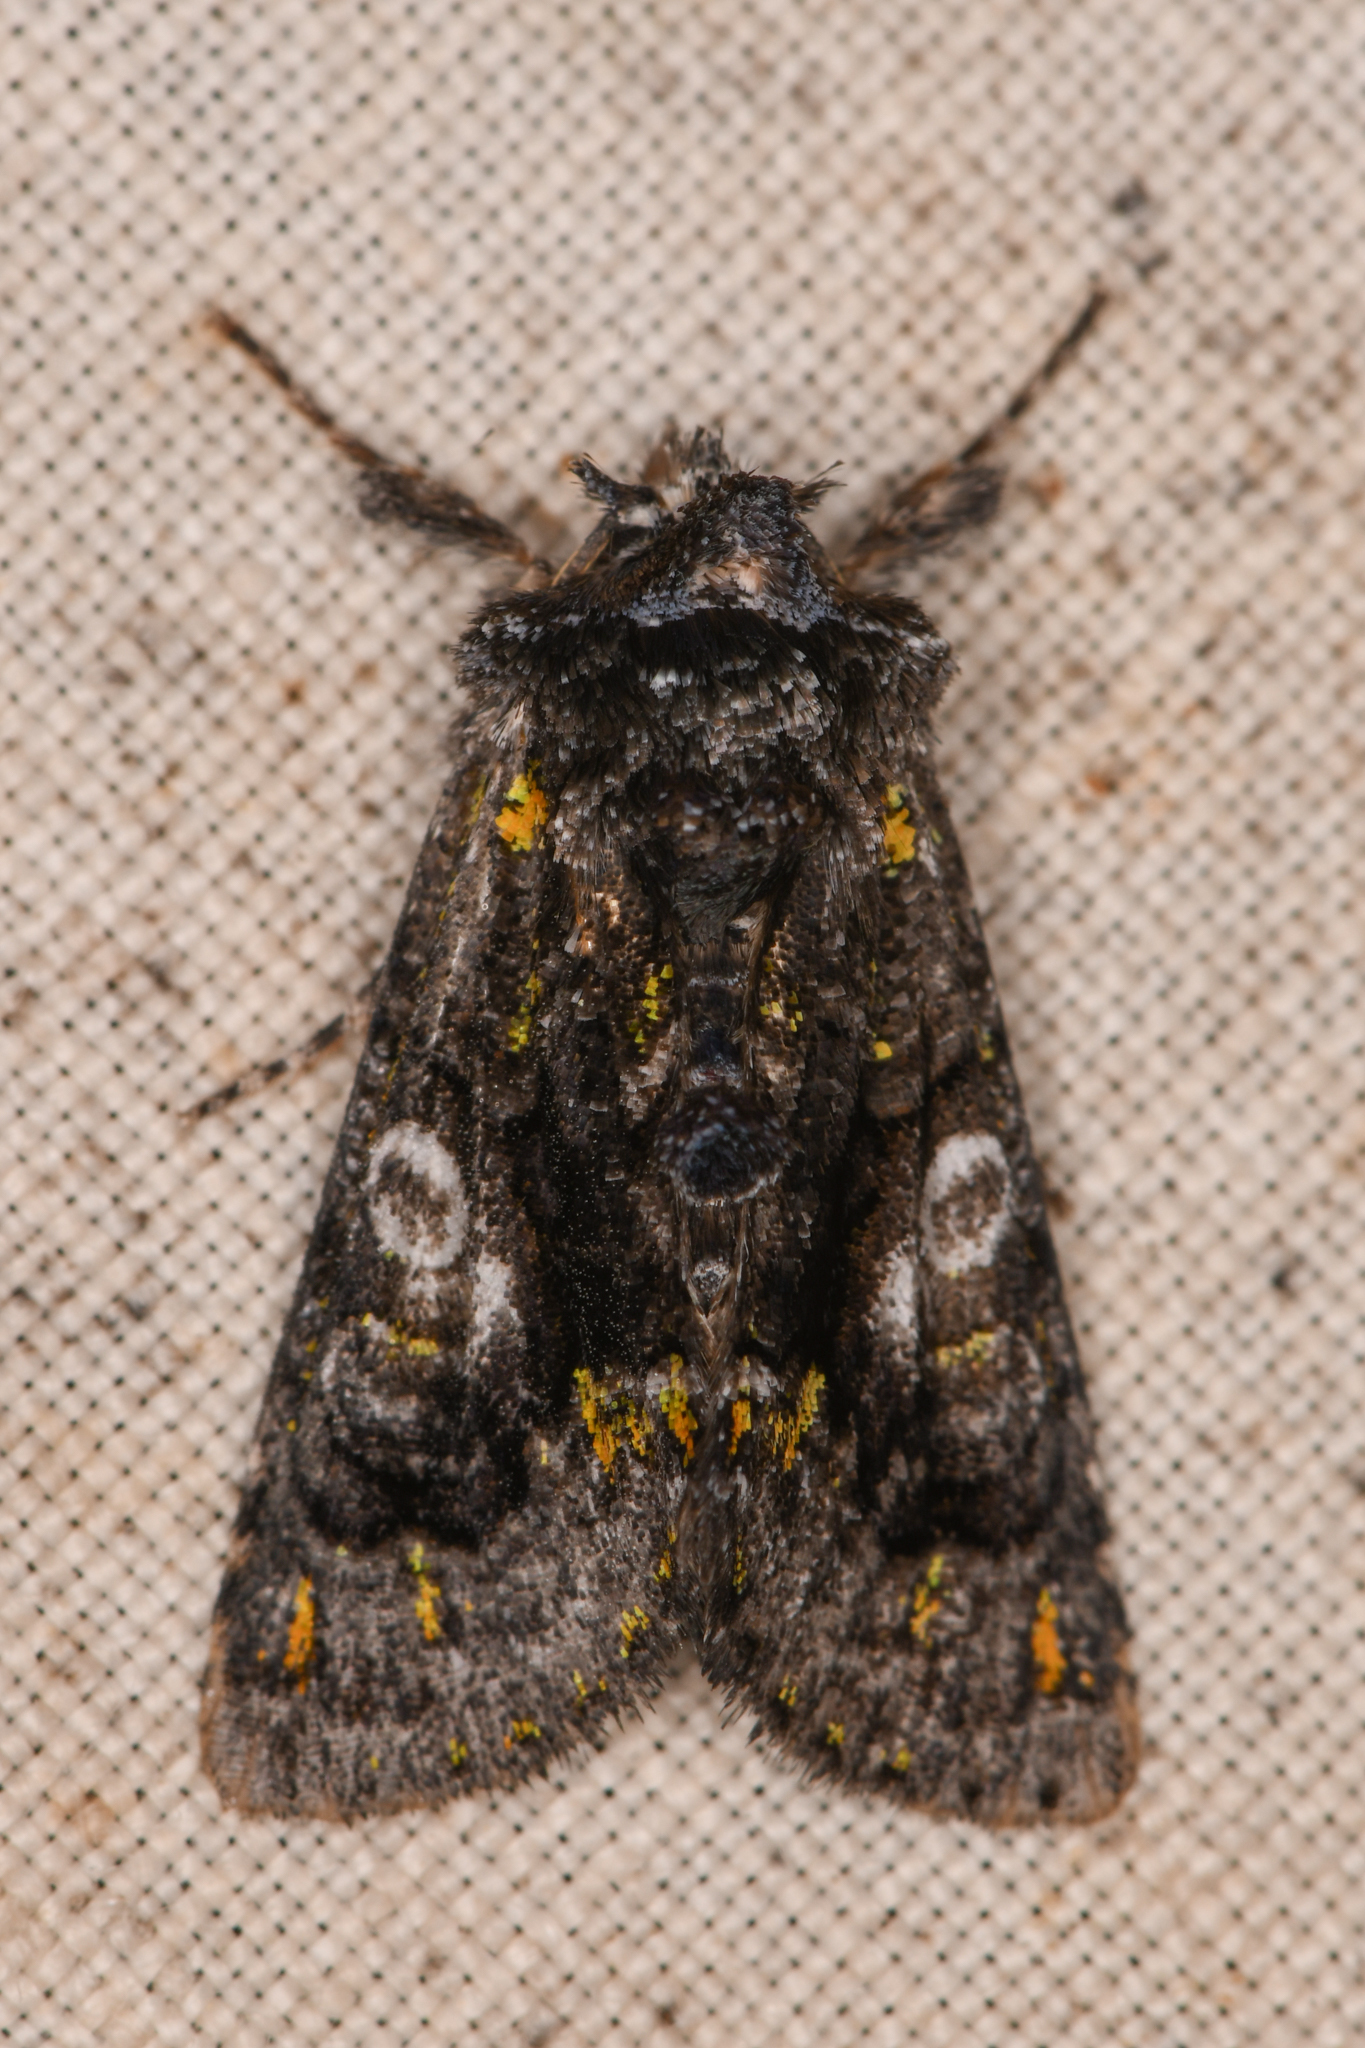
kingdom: Animalia
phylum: Arthropoda
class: Insecta
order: Lepidoptera
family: Noctuidae
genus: Behrensia
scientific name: Behrensia conchiformis
